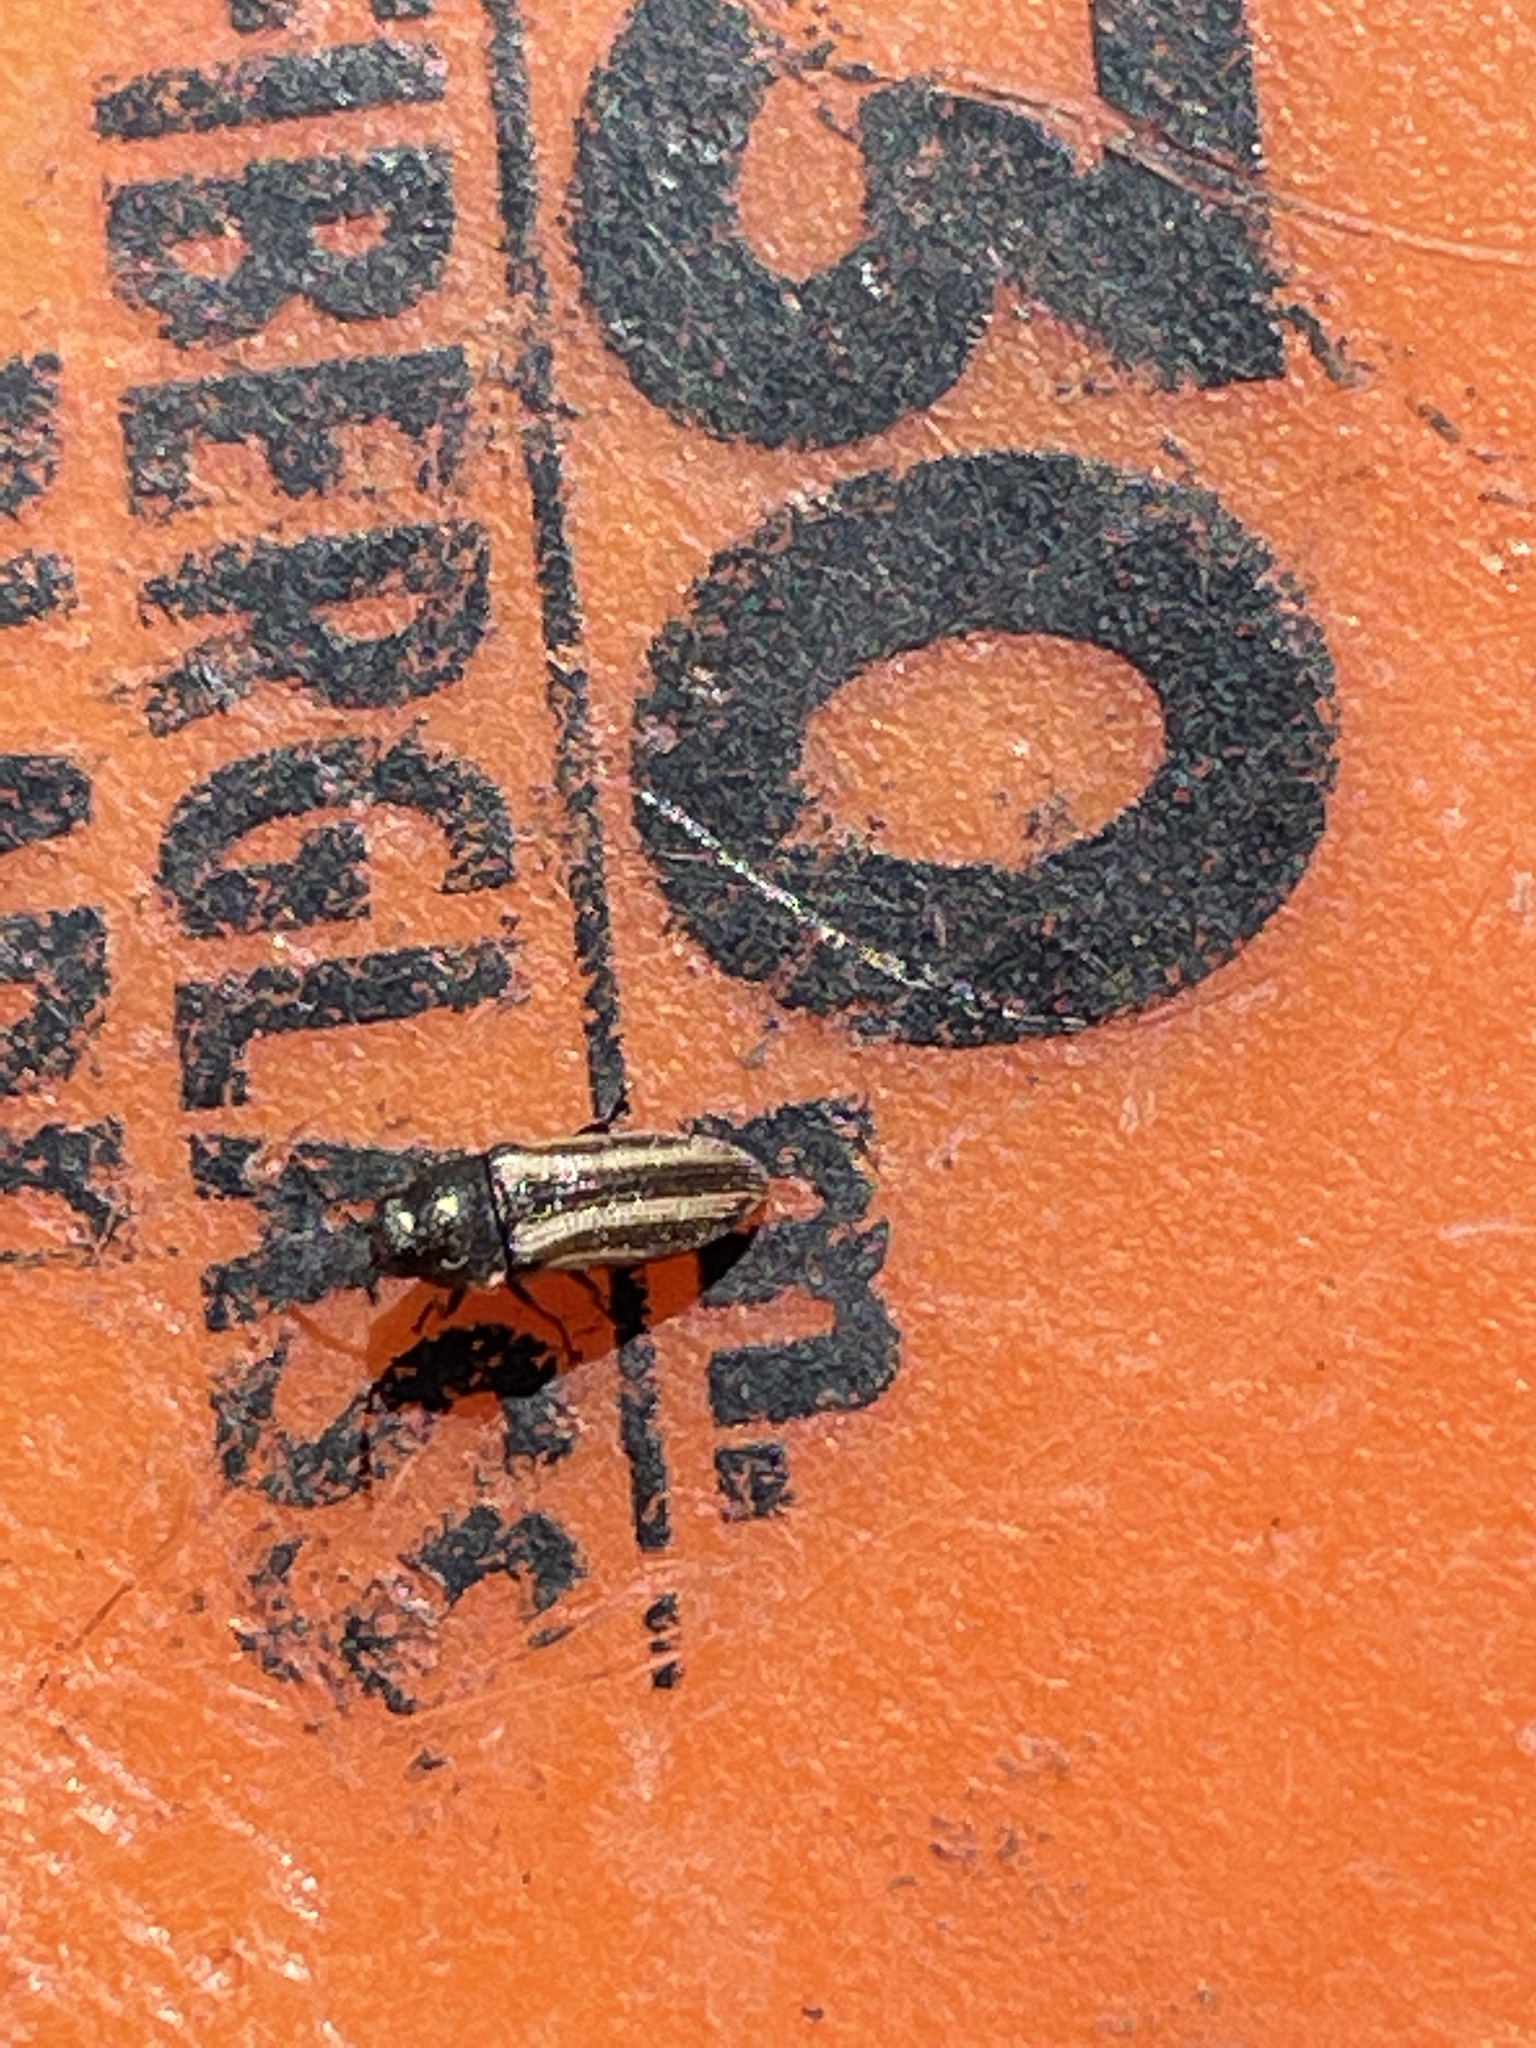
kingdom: Animalia
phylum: Arthropoda
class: Insecta
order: Coleoptera
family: Buprestidae
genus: Acmaeodera
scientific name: Acmaeodera quadrivittatoides
